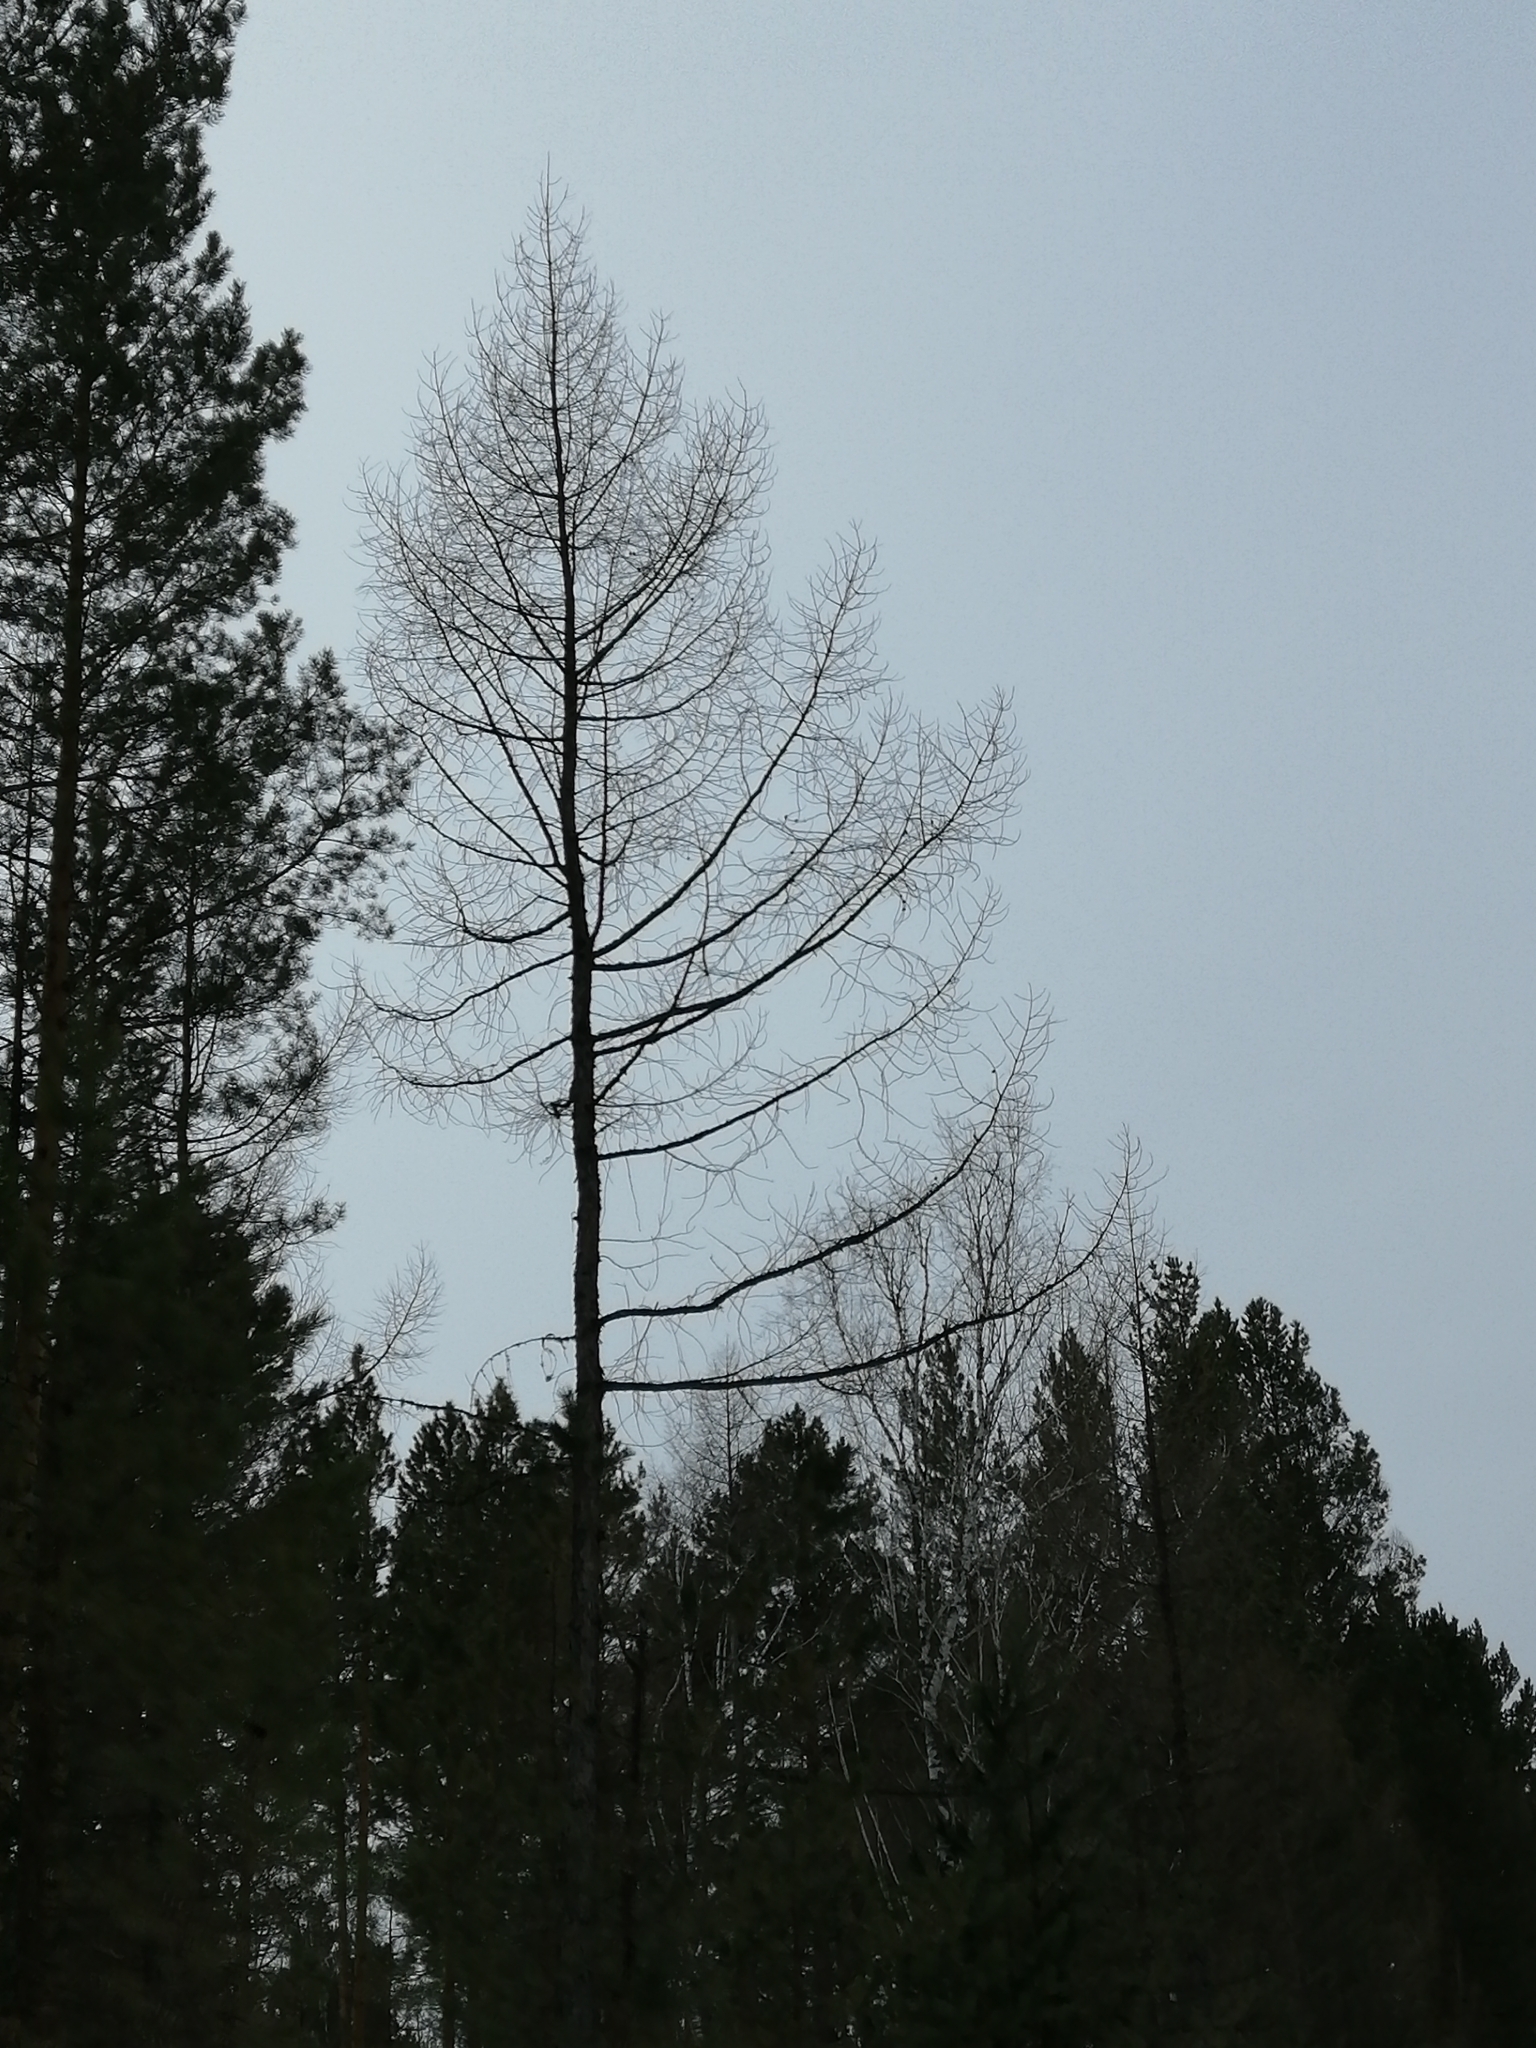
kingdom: Plantae
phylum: Tracheophyta
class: Pinopsida
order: Pinales
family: Pinaceae
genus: Larix
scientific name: Larix sibirica
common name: Siberian larch
